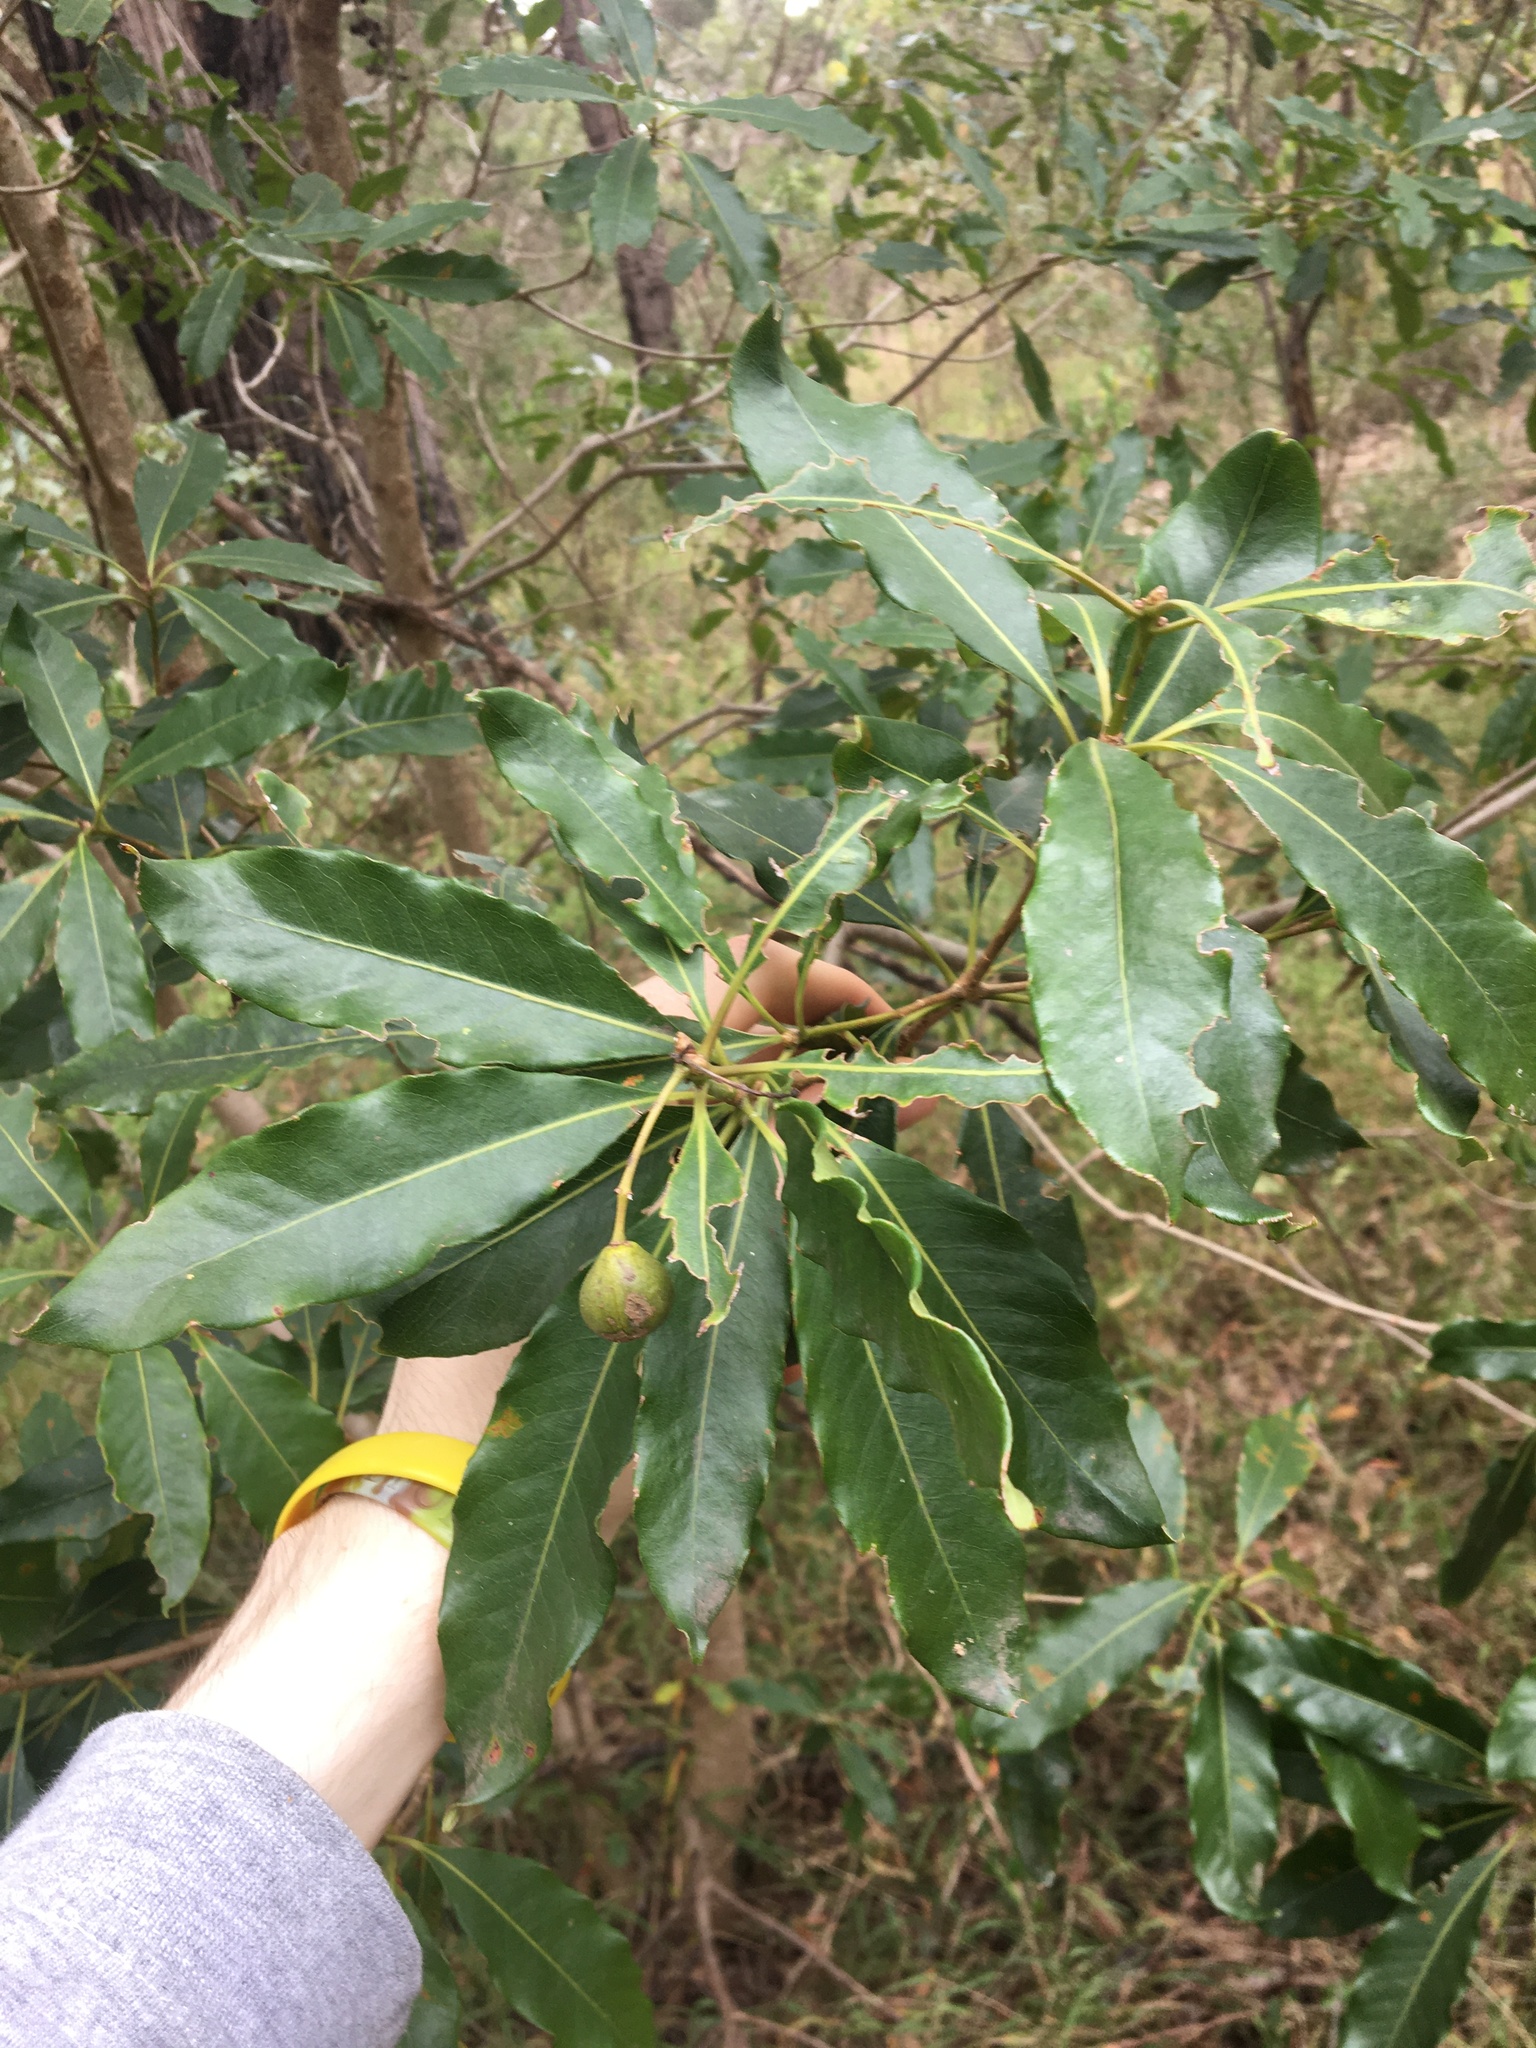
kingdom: Plantae
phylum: Tracheophyta
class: Magnoliopsida
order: Apiales
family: Pittosporaceae
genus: Pittosporum
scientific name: Pittosporum undulatum
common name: Australian cheesewood
